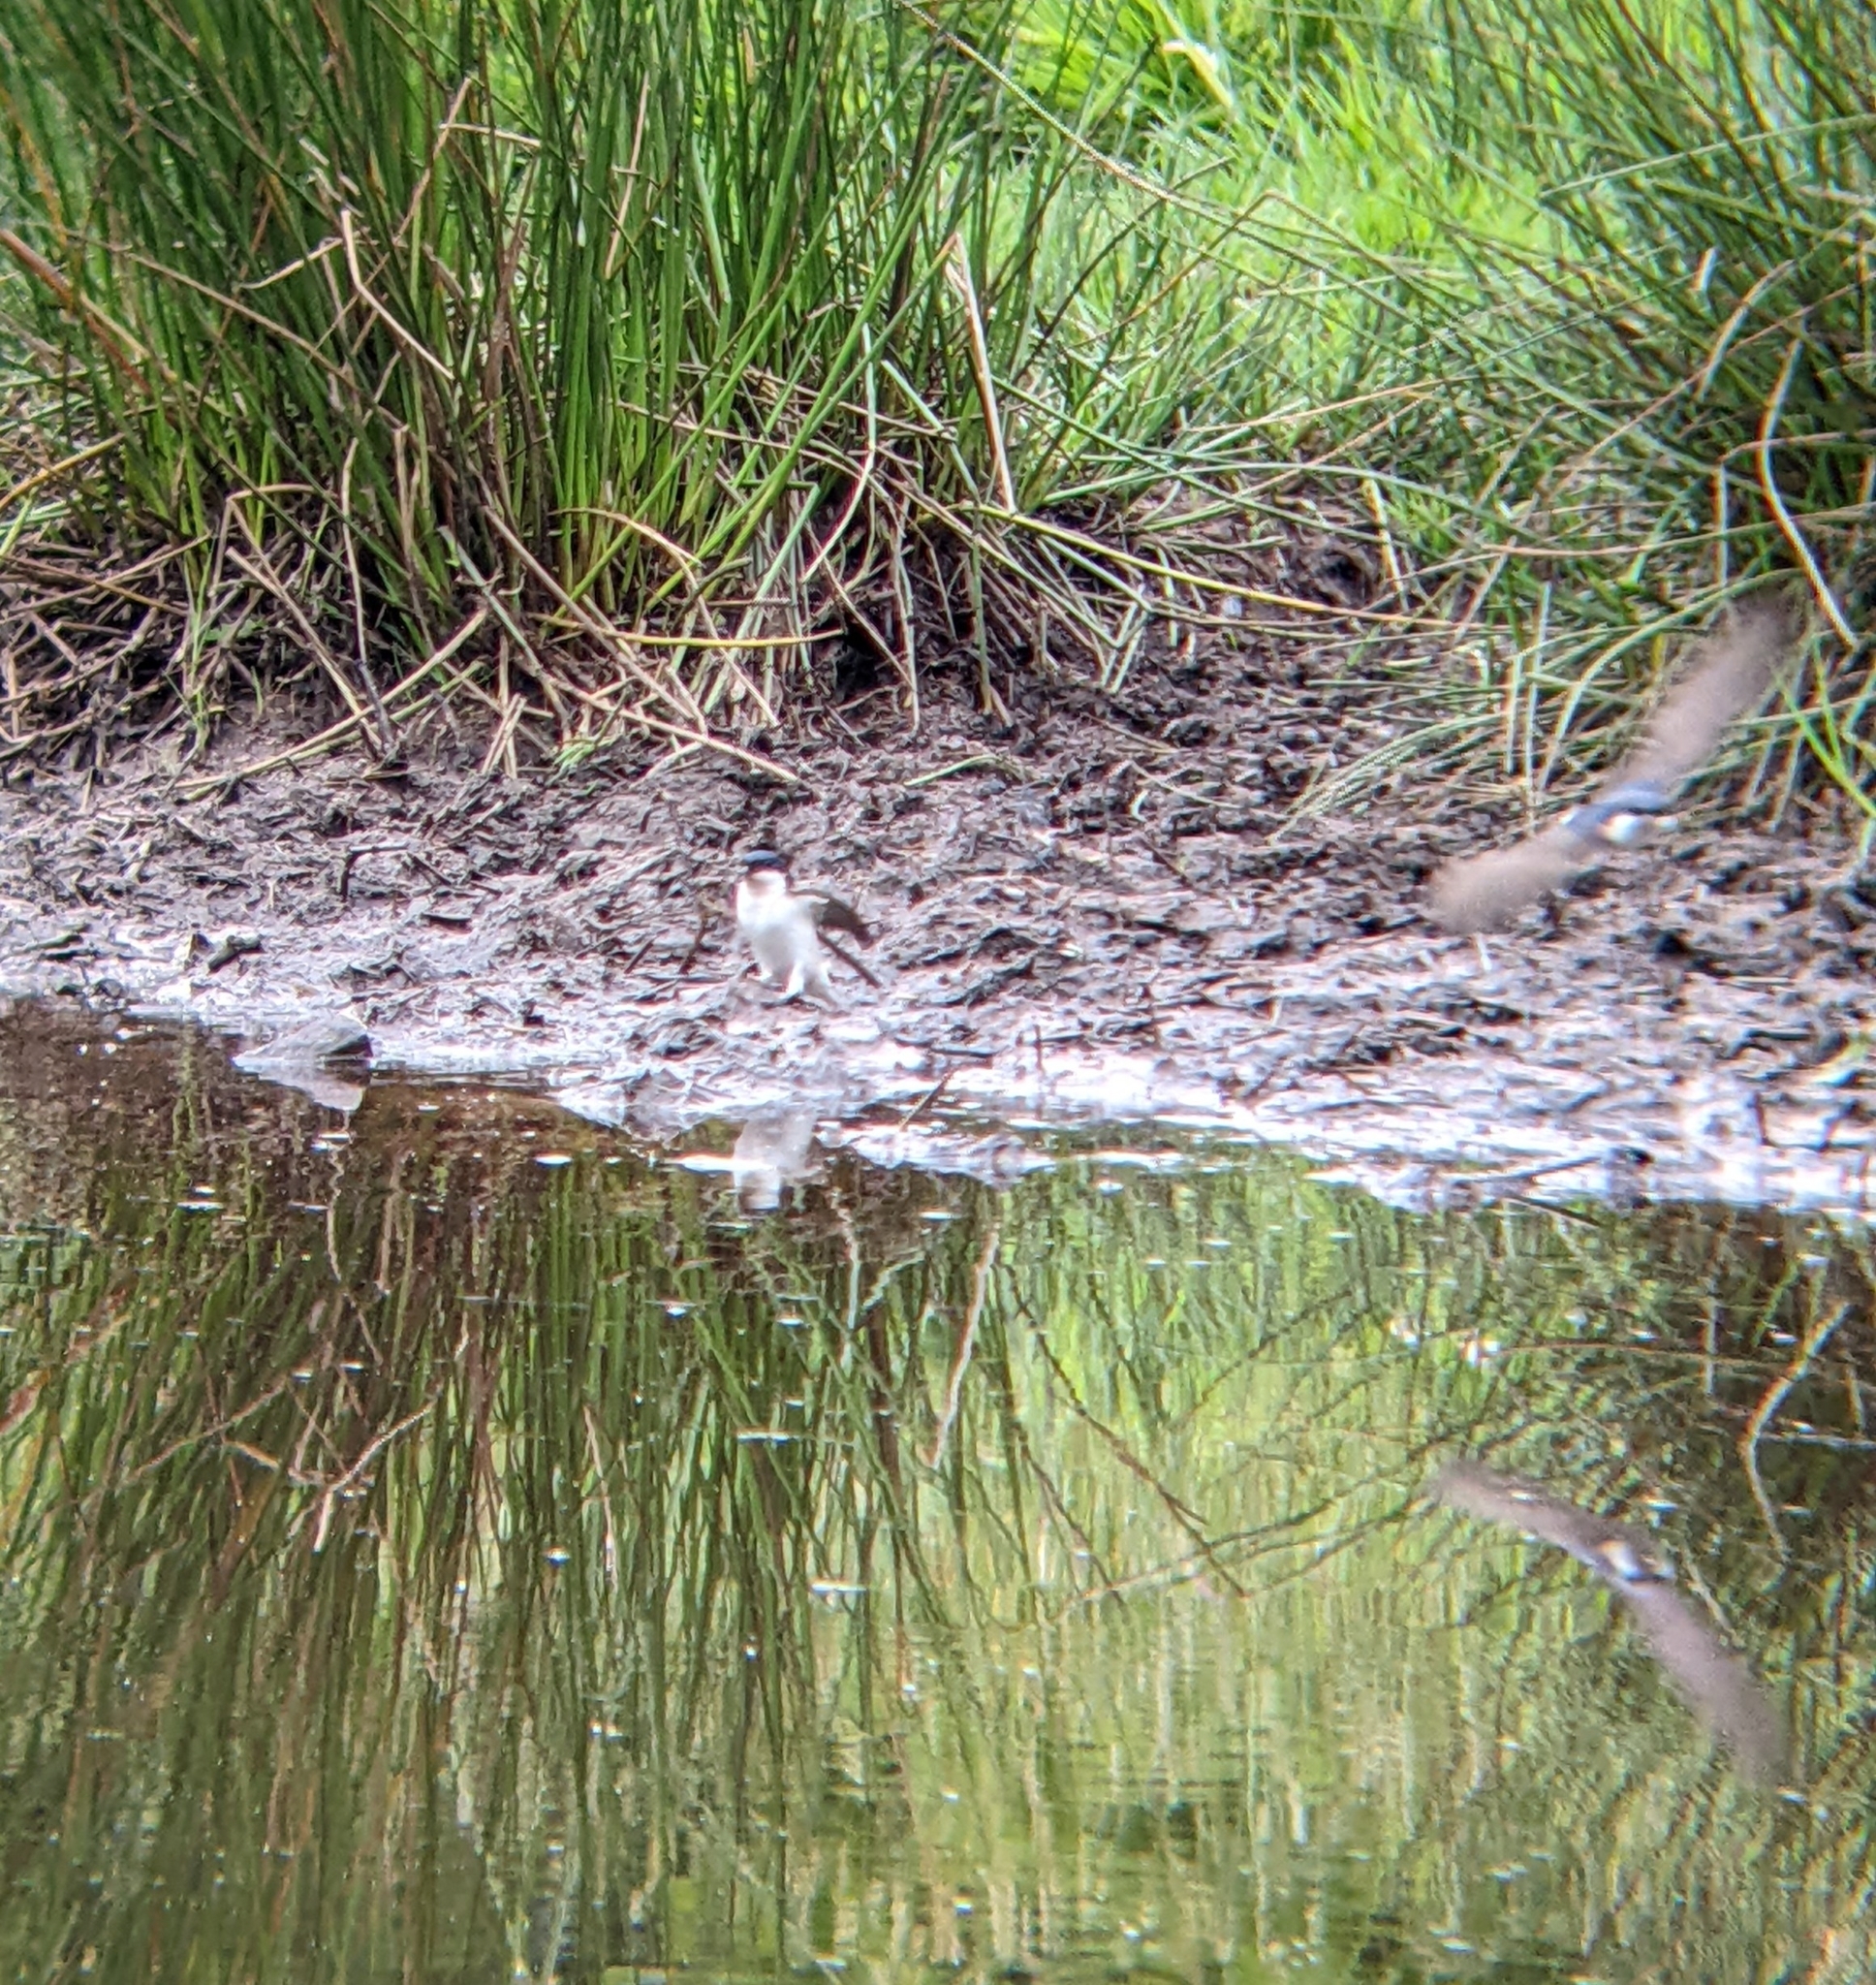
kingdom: Animalia
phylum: Chordata
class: Aves
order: Passeriformes
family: Hirundinidae
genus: Delichon
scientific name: Delichon urbicum
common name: Common house martin
